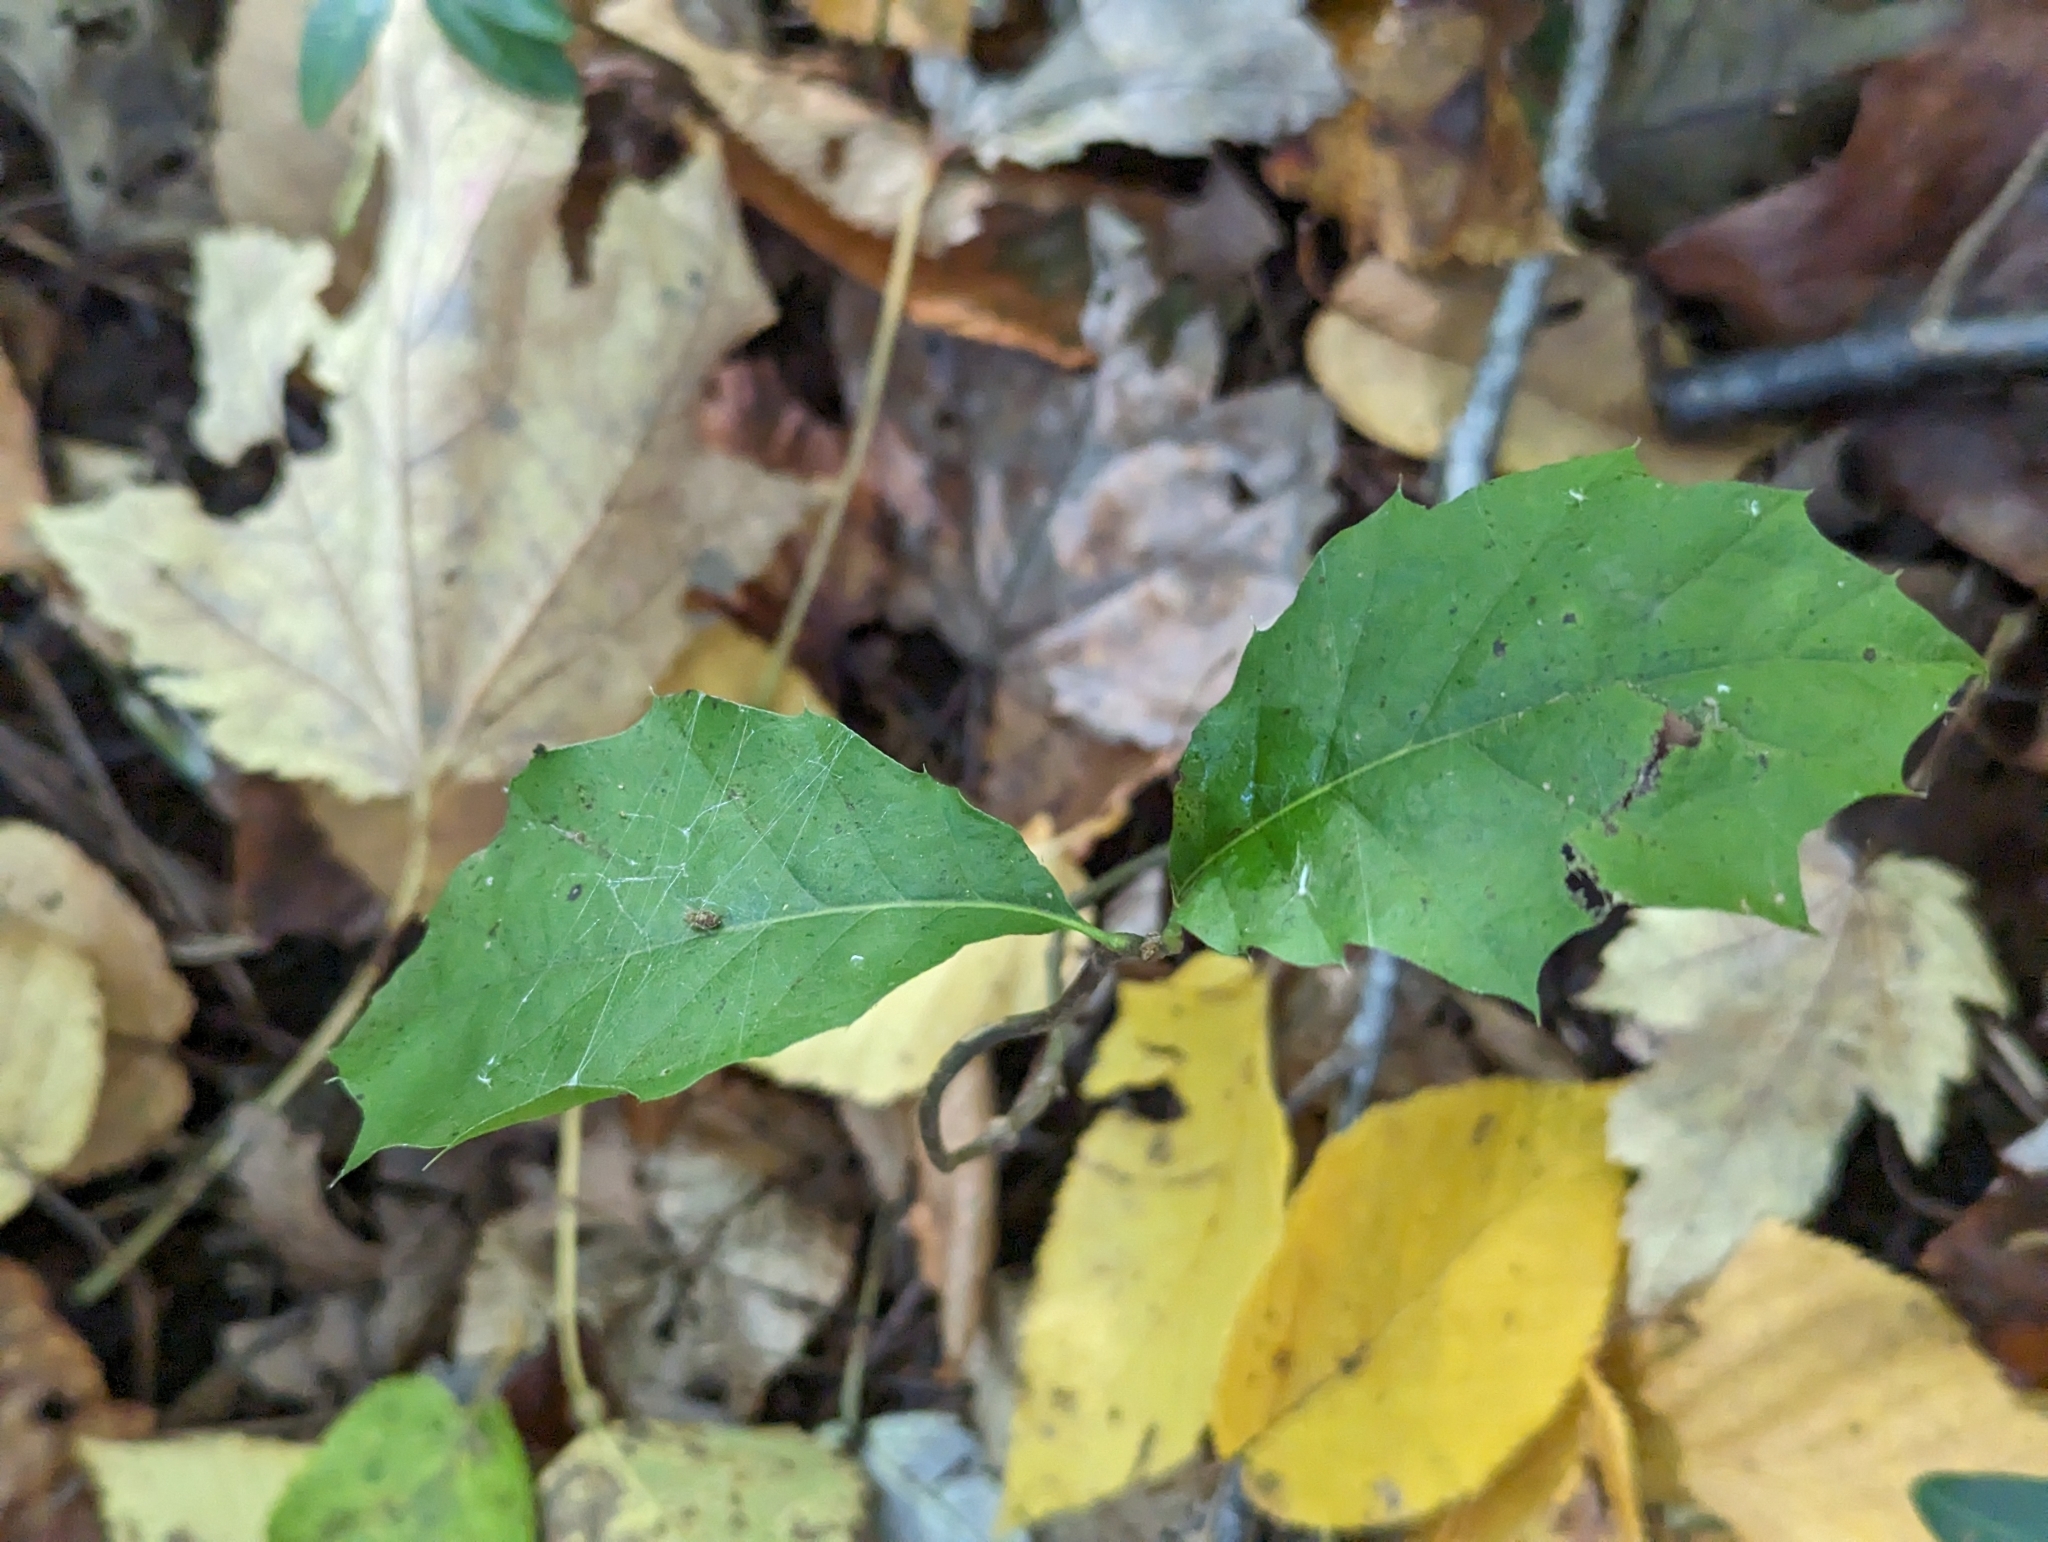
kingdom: Plantae
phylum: Tracheophyta
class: Magnoliopsida
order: Aquifoliales
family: Aquifoliaceae
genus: Ilex
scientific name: Ilex opaca
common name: American holly
